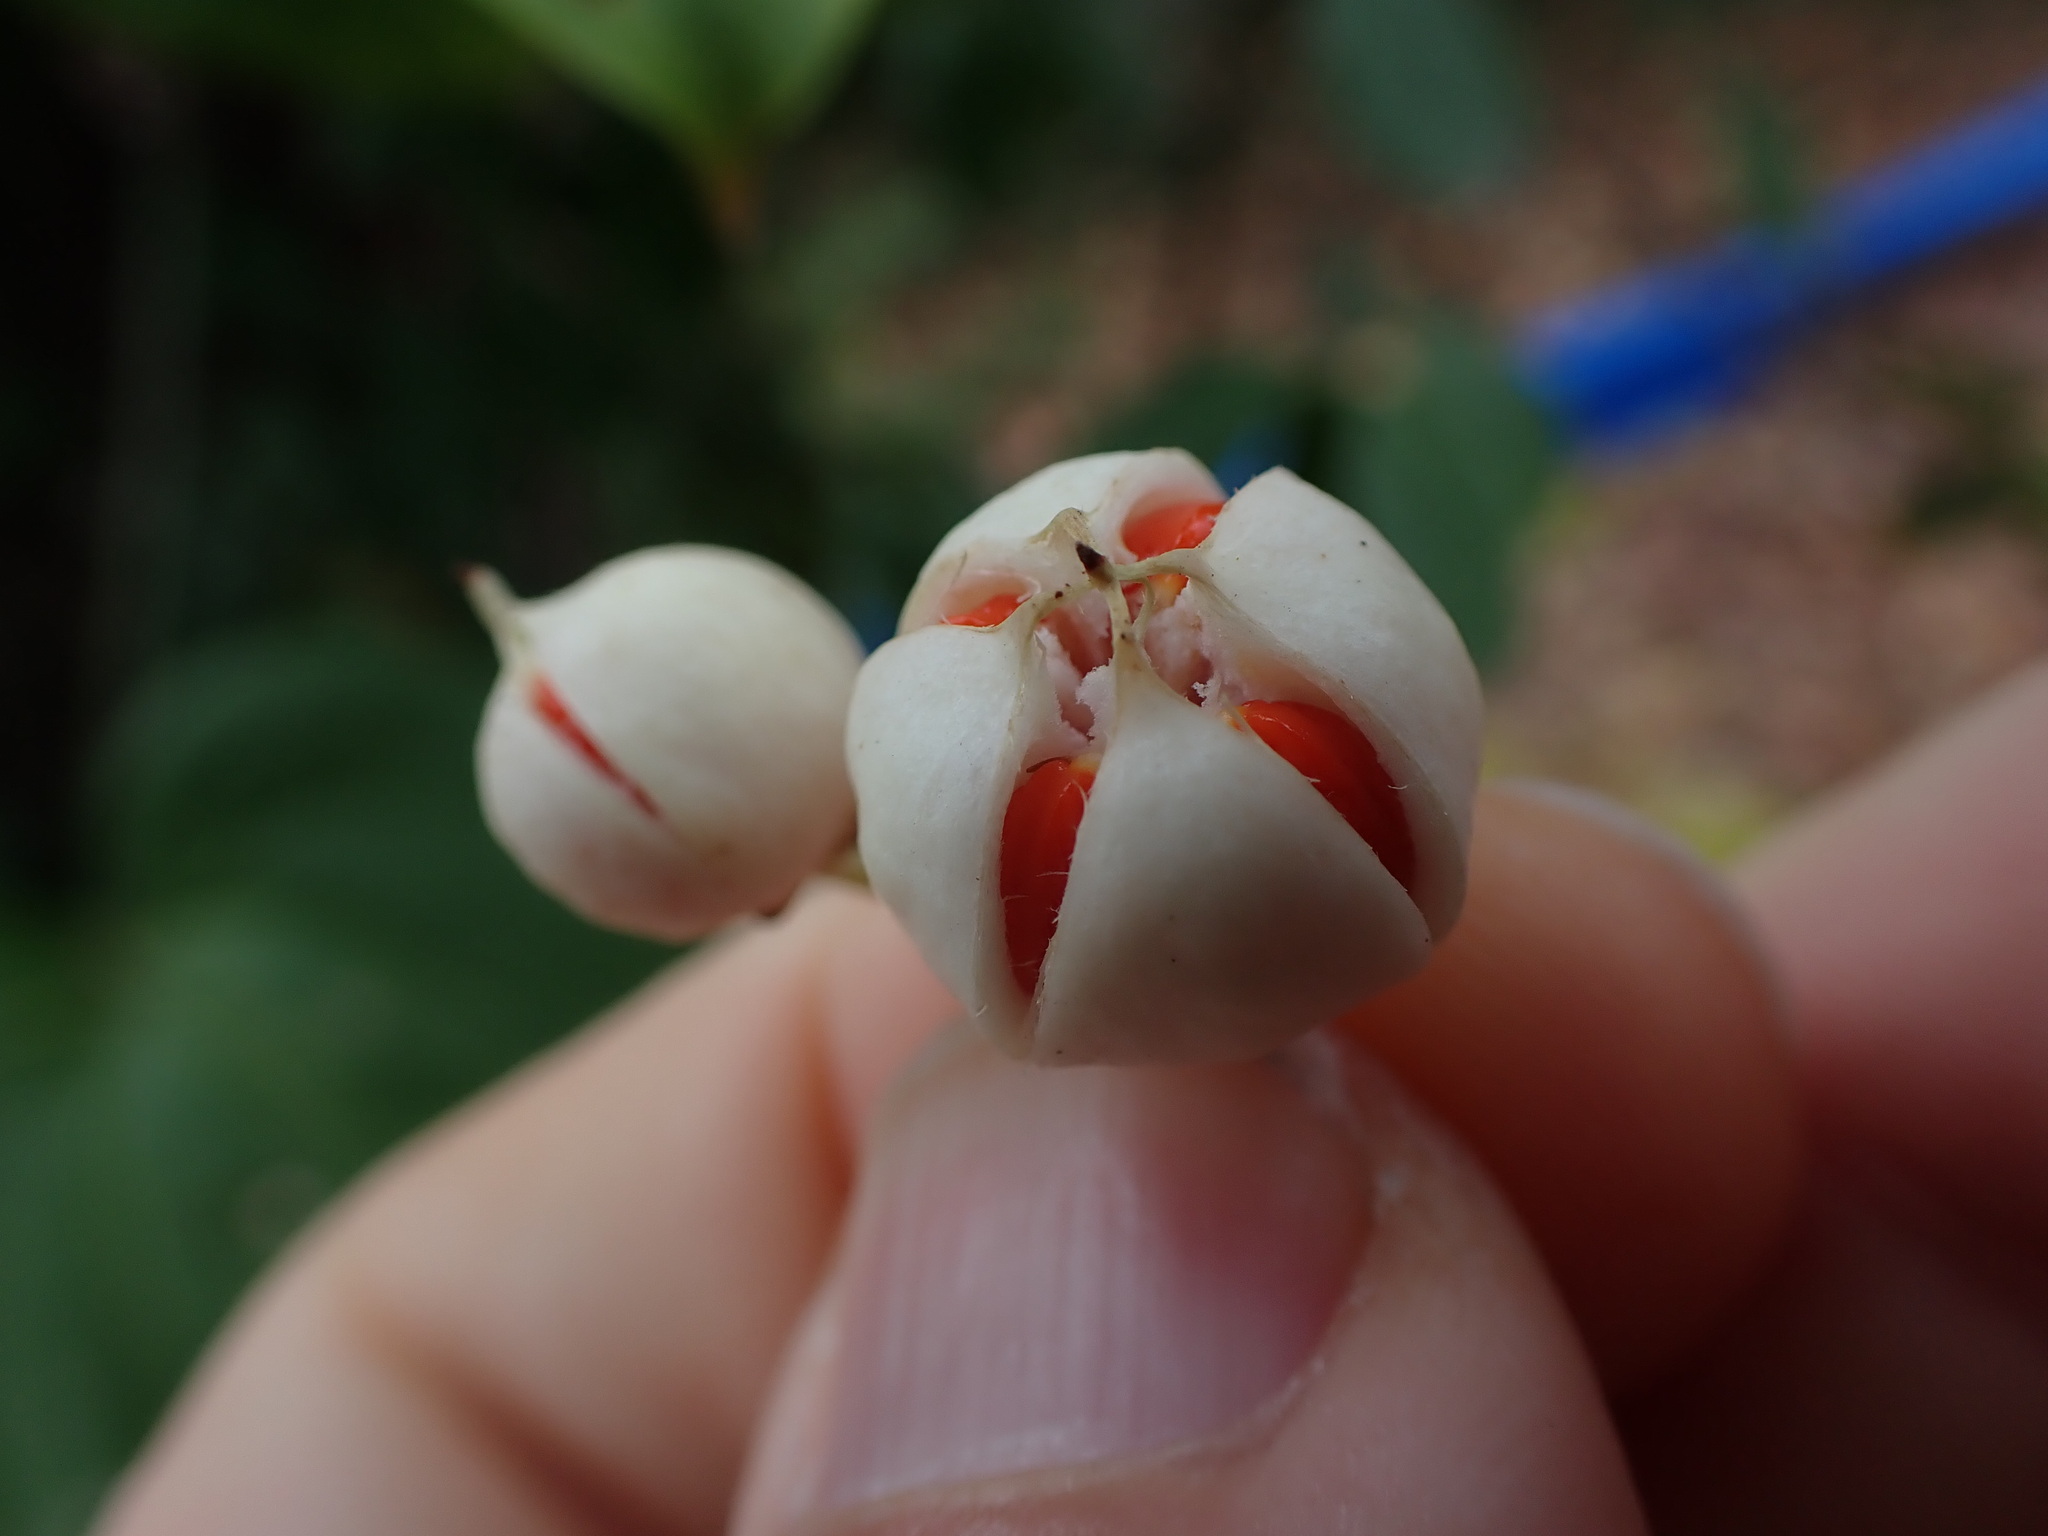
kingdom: Plantae
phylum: Tracheophyta
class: Magnoliopsida
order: Celastrales
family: Celastraceae
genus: Euonymus
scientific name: Euonymus fortunei
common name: Climbing euonymus
